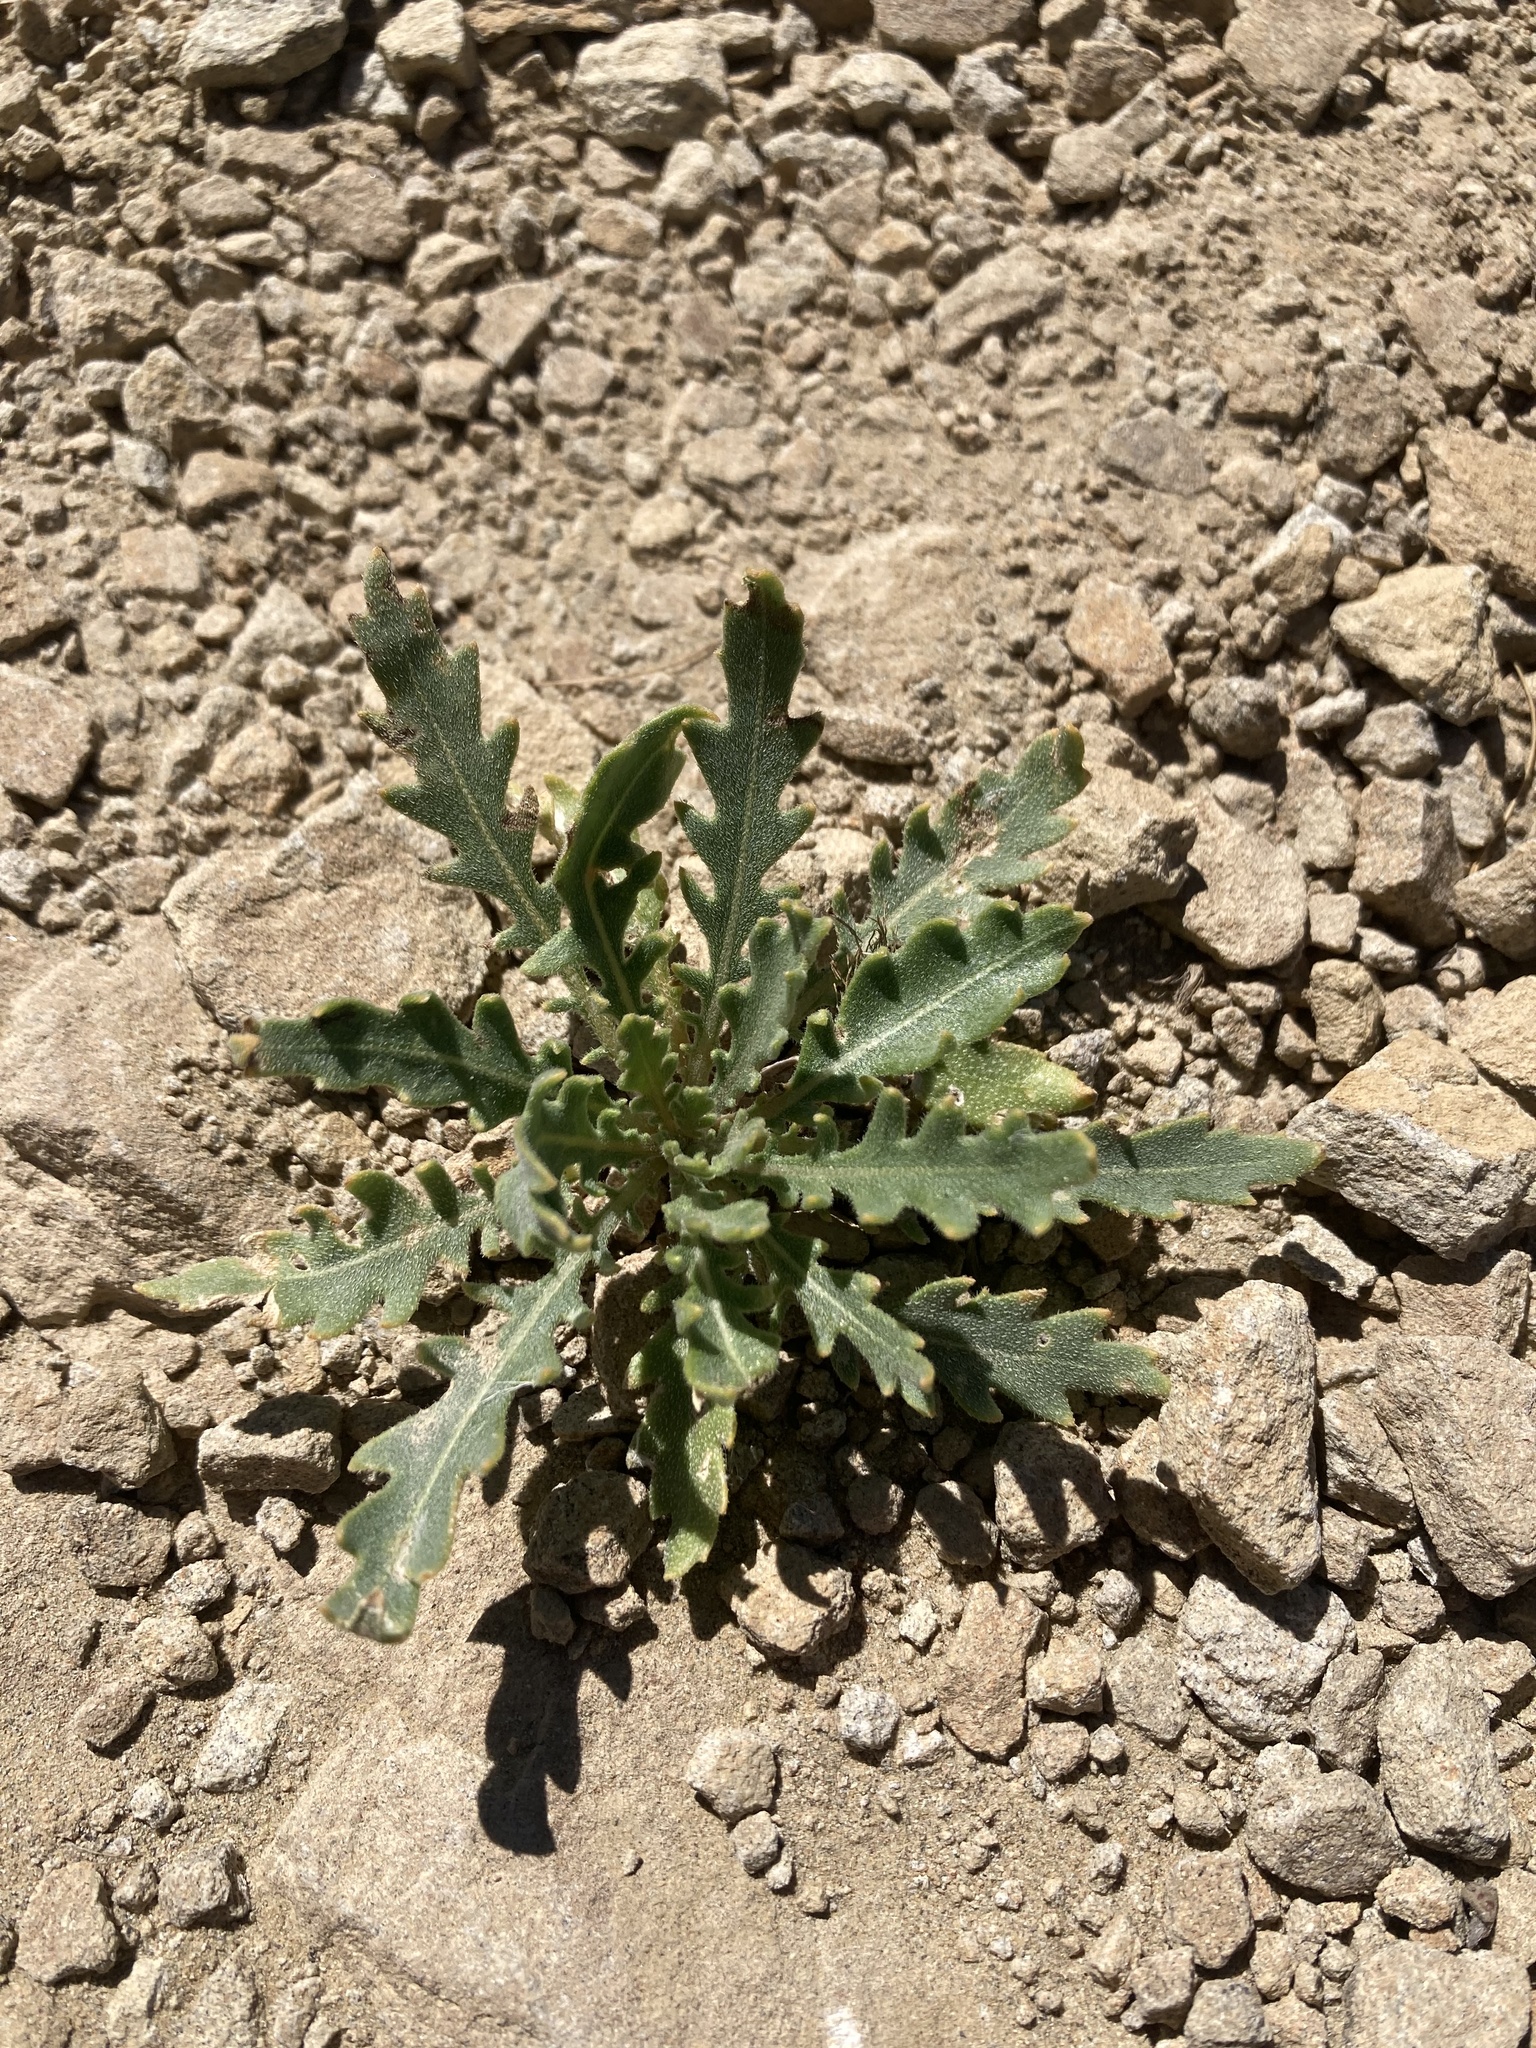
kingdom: Plantae
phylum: Tracheophyta
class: Magnoliopsida
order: Cornales
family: Loasaceae
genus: Mentzelia
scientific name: Mentzelia decapetala
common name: Gumbo-lily
